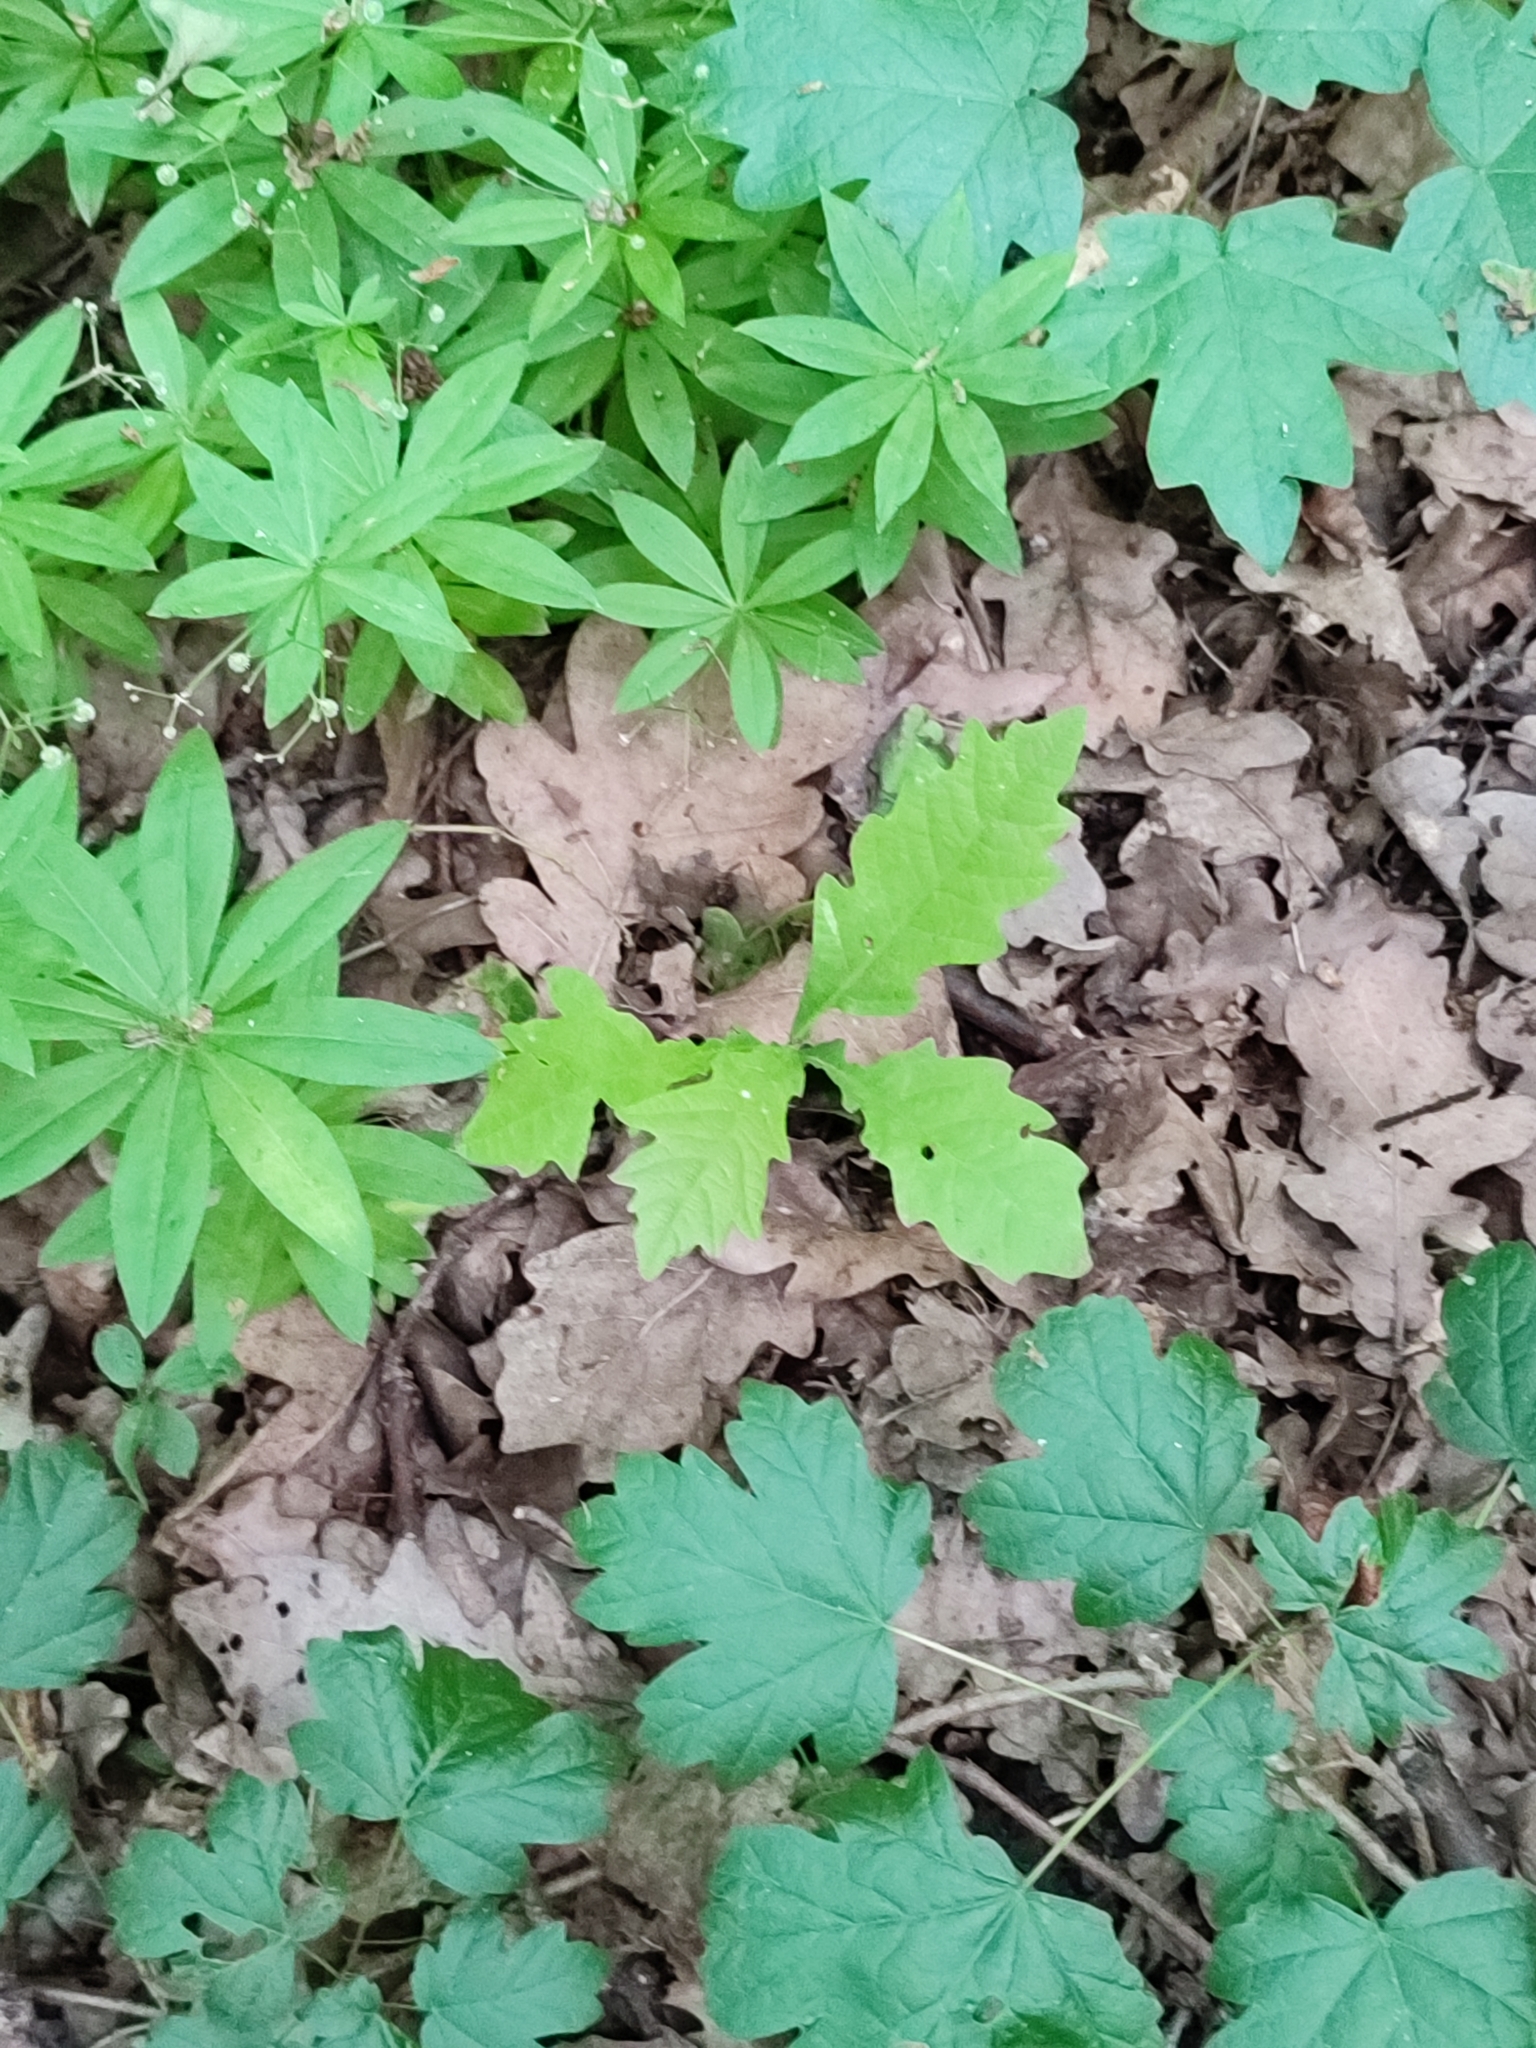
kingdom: Plantae
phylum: Tracheophyta
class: Magnoliopsida
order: Fagales
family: Fagaceae
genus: Quercus
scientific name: Quercus robur
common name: Pedunculate oak
